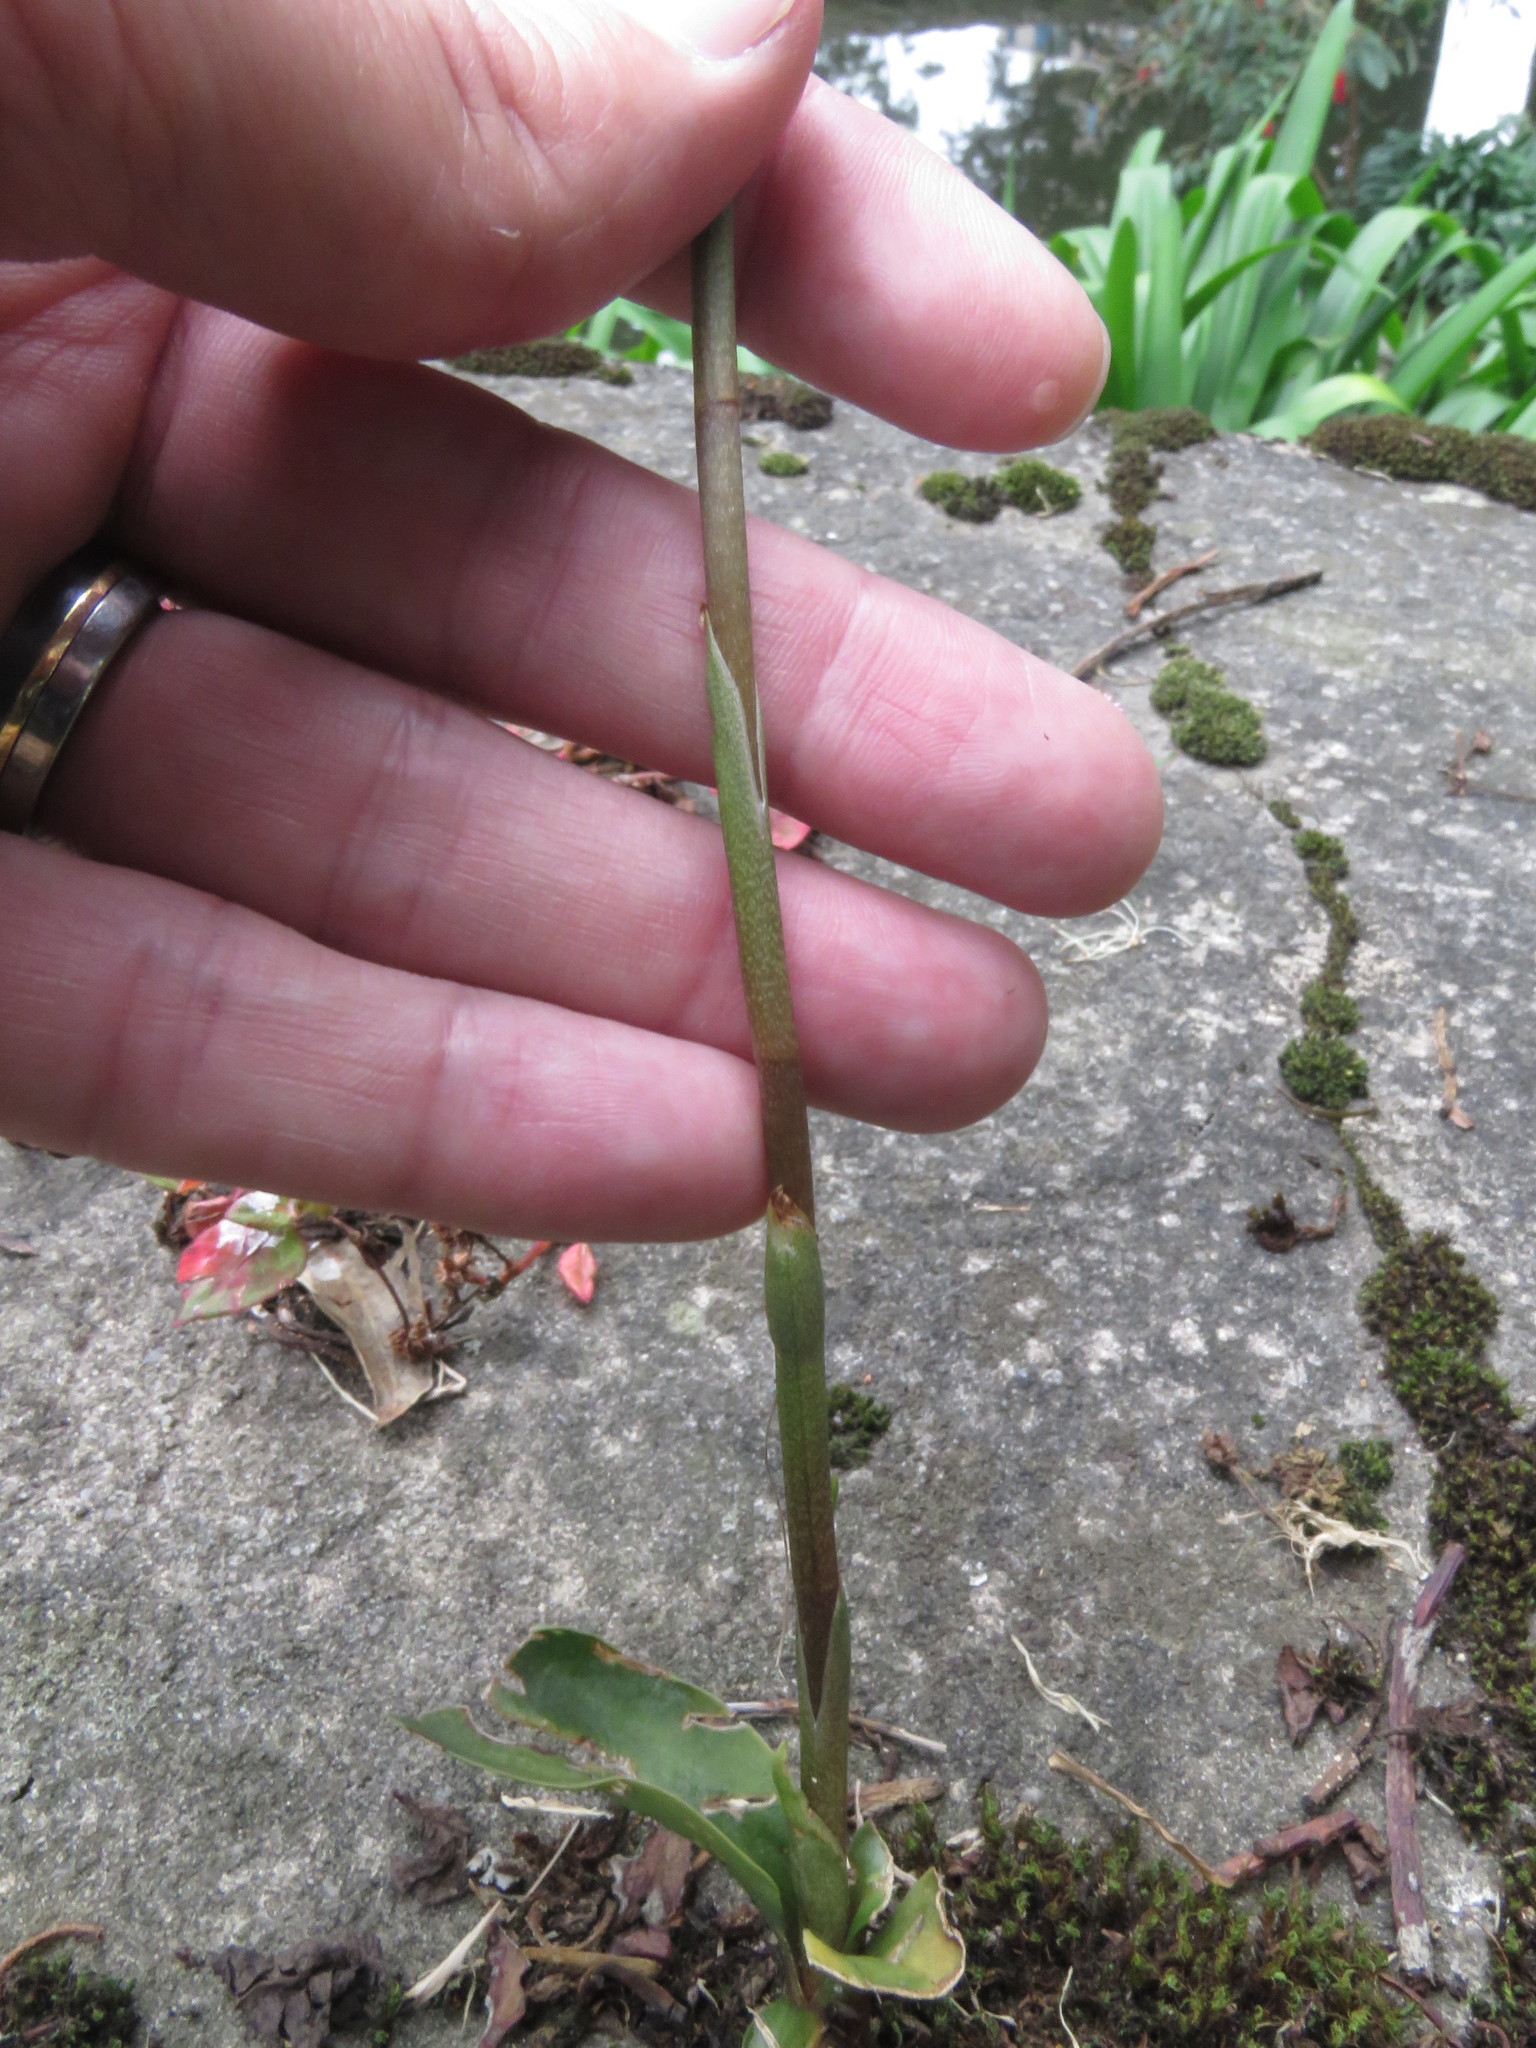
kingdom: Plantae
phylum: Tracheophyta
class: Liliopsida
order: Asparagales
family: Orchidaceae
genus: Cyclopogon
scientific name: Cyclopogon elatus
